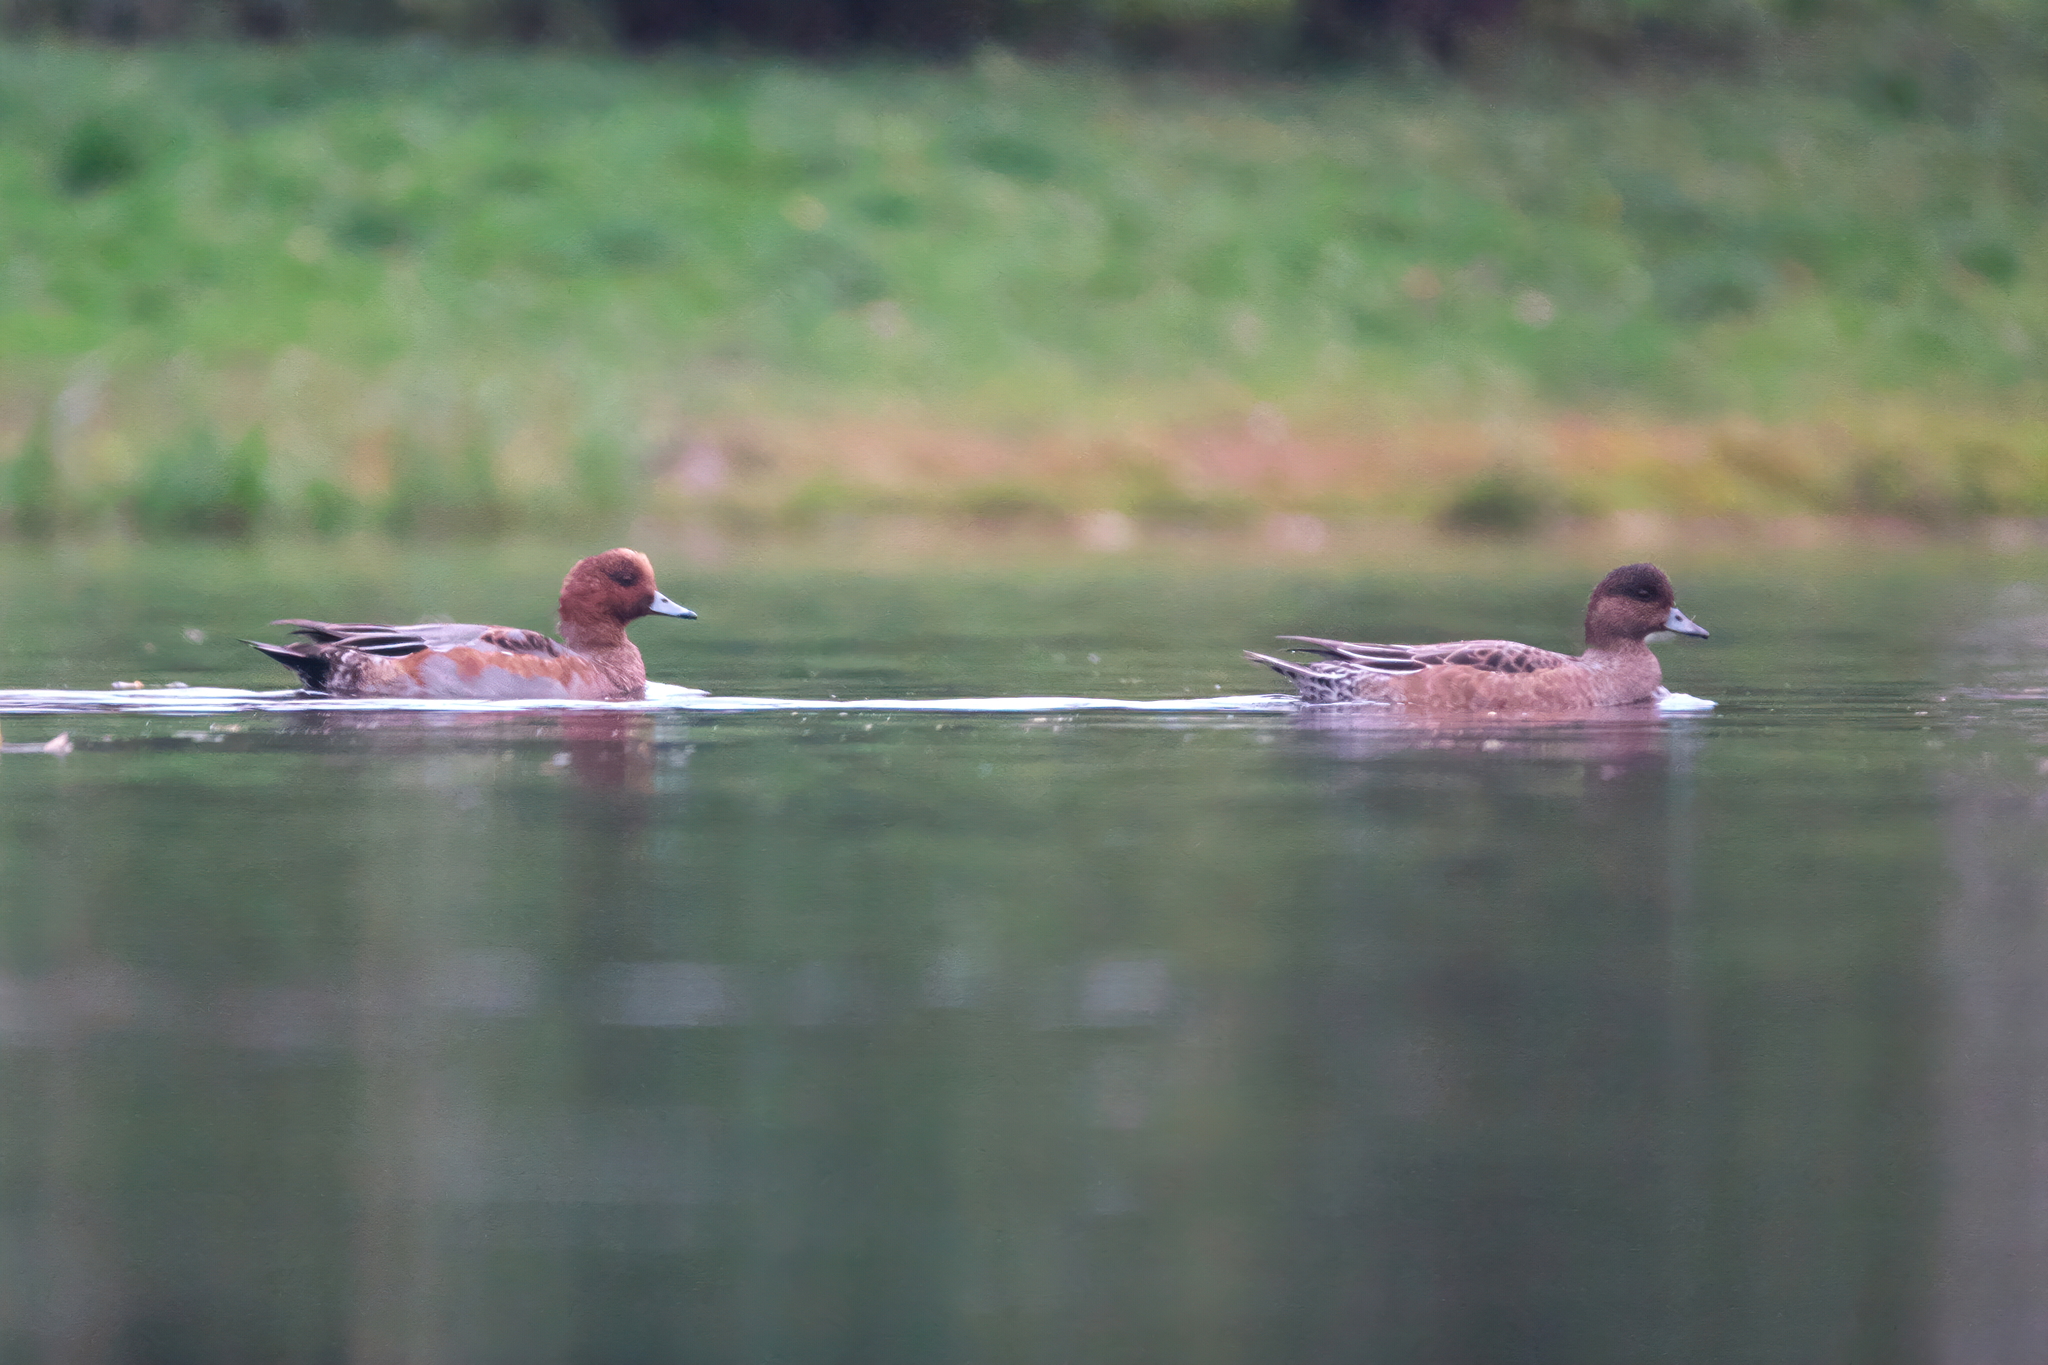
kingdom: Animalia
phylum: Chordata
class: Aves
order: Anseriformes
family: Anatidae
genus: Mareca
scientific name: Mareca penelope
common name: Eurasian wigeon
